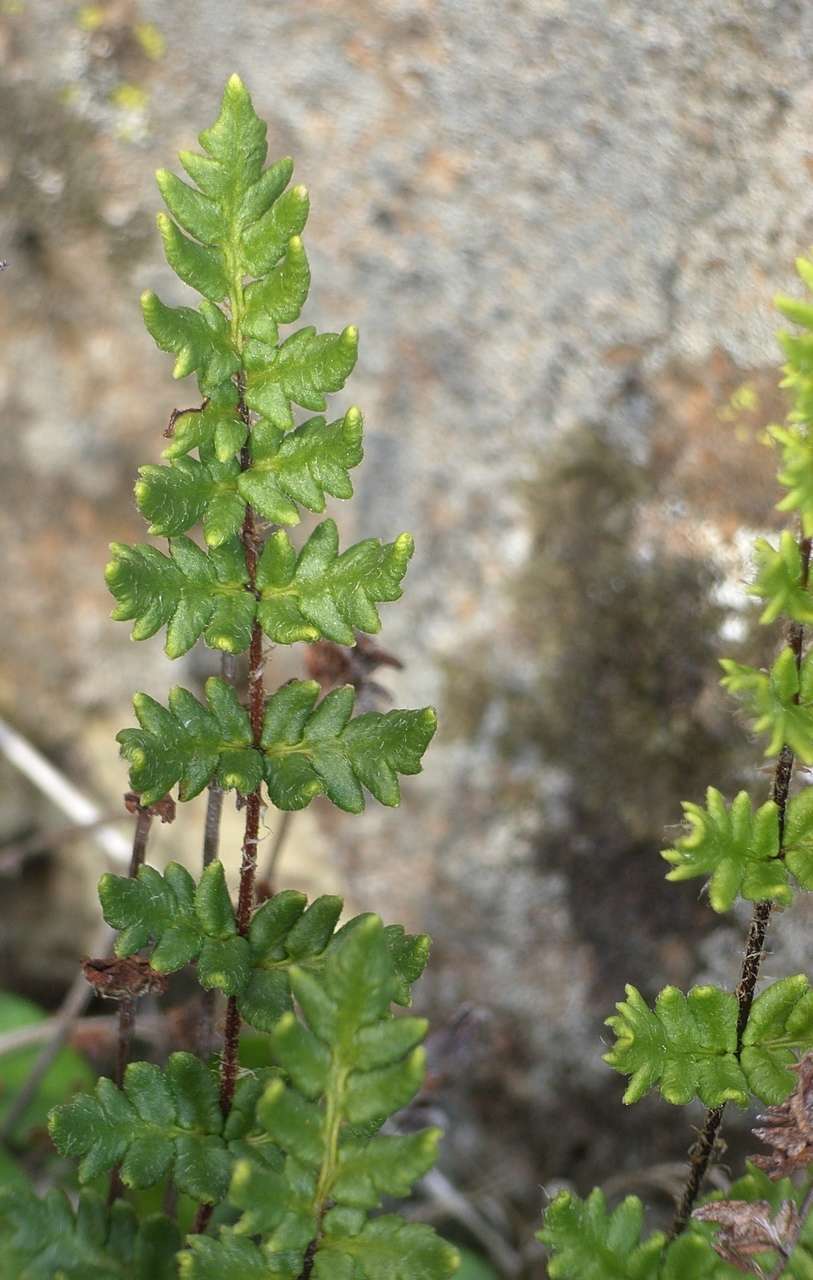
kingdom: Plantae
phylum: Tracheophyta
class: Polypodiopsida
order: Polypodiales
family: Pteridaceae
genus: Cheilanthes
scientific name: Cheilanthes distans
